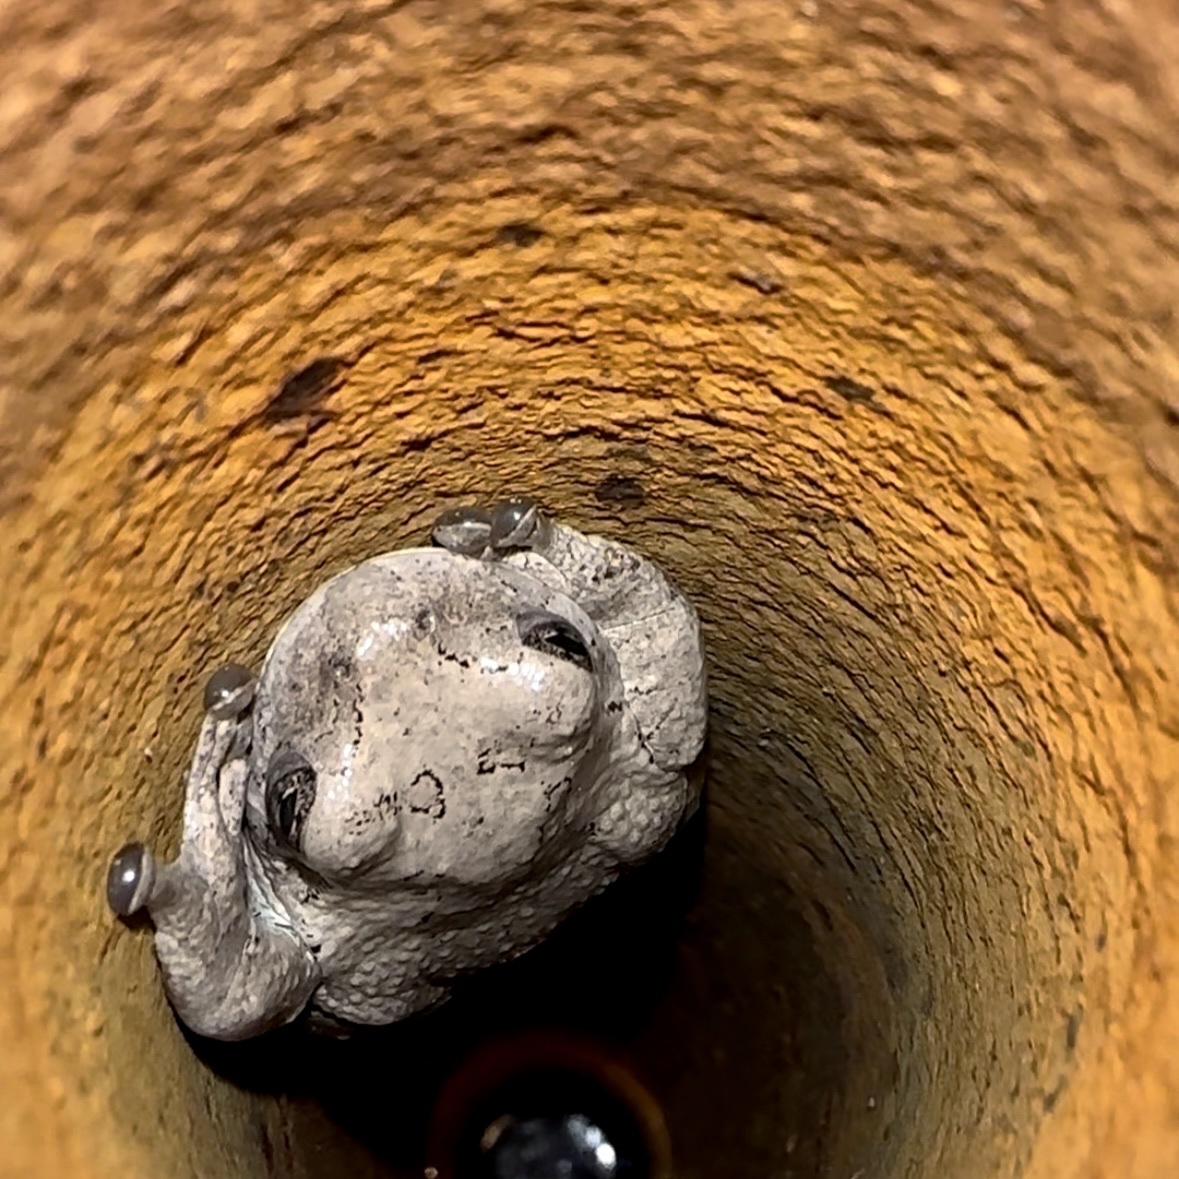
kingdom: Animalia
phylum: Chordata
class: Amphibia
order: Anura
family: Hylidae
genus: Hyla
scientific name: Hyla
